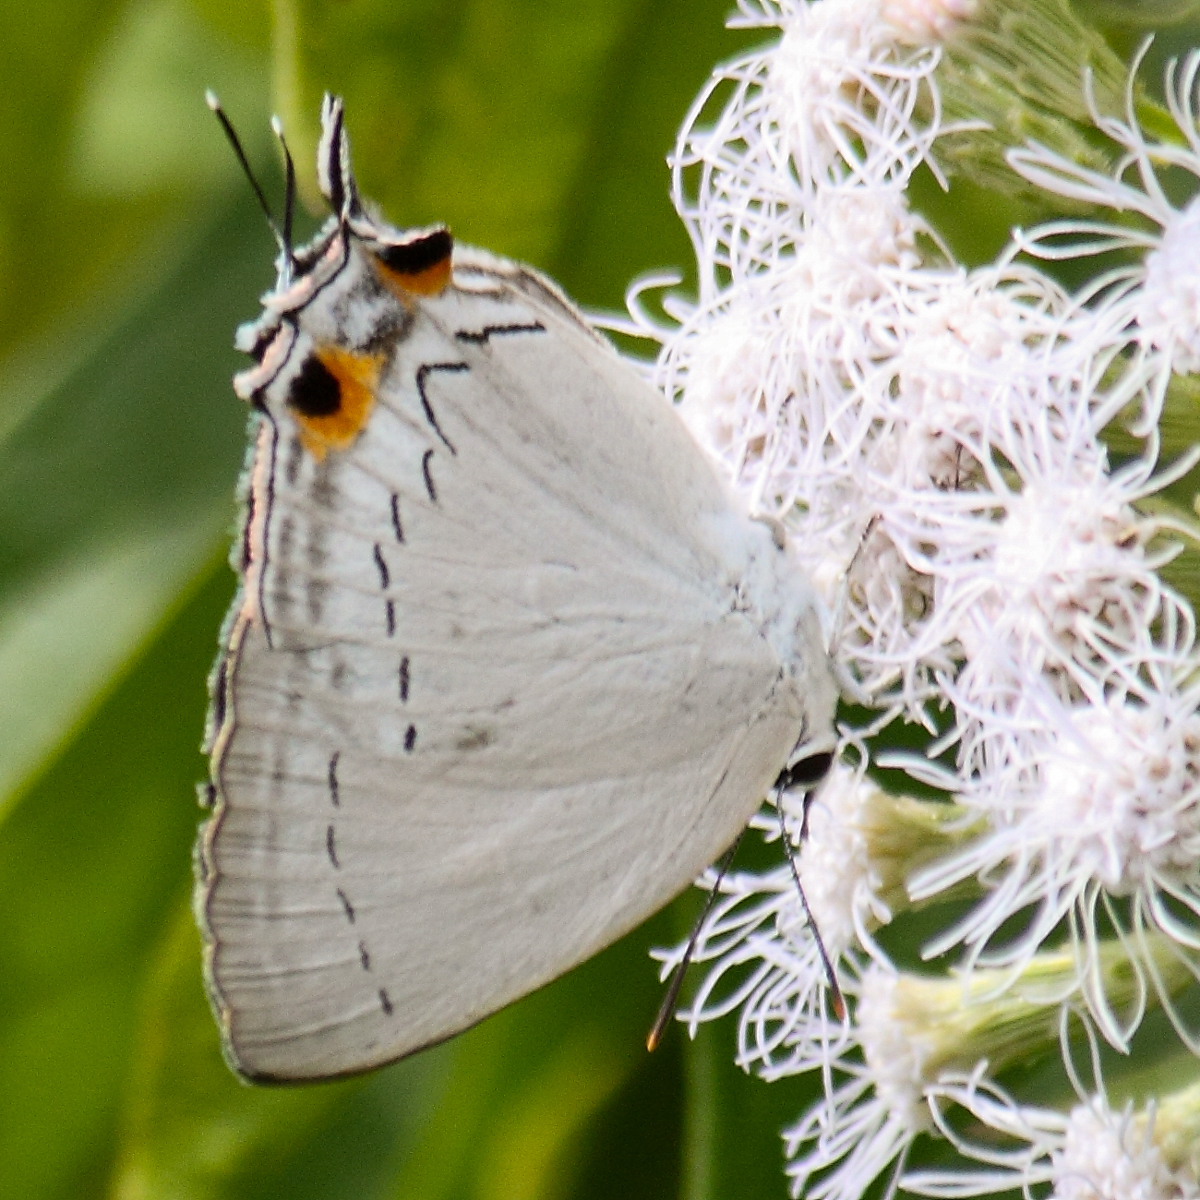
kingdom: Animalia
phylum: Arthropoda
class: Insecta
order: Lepidoptera
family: Lycaenidae
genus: Tajuria
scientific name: Tajuria cippus
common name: Peacock royal
